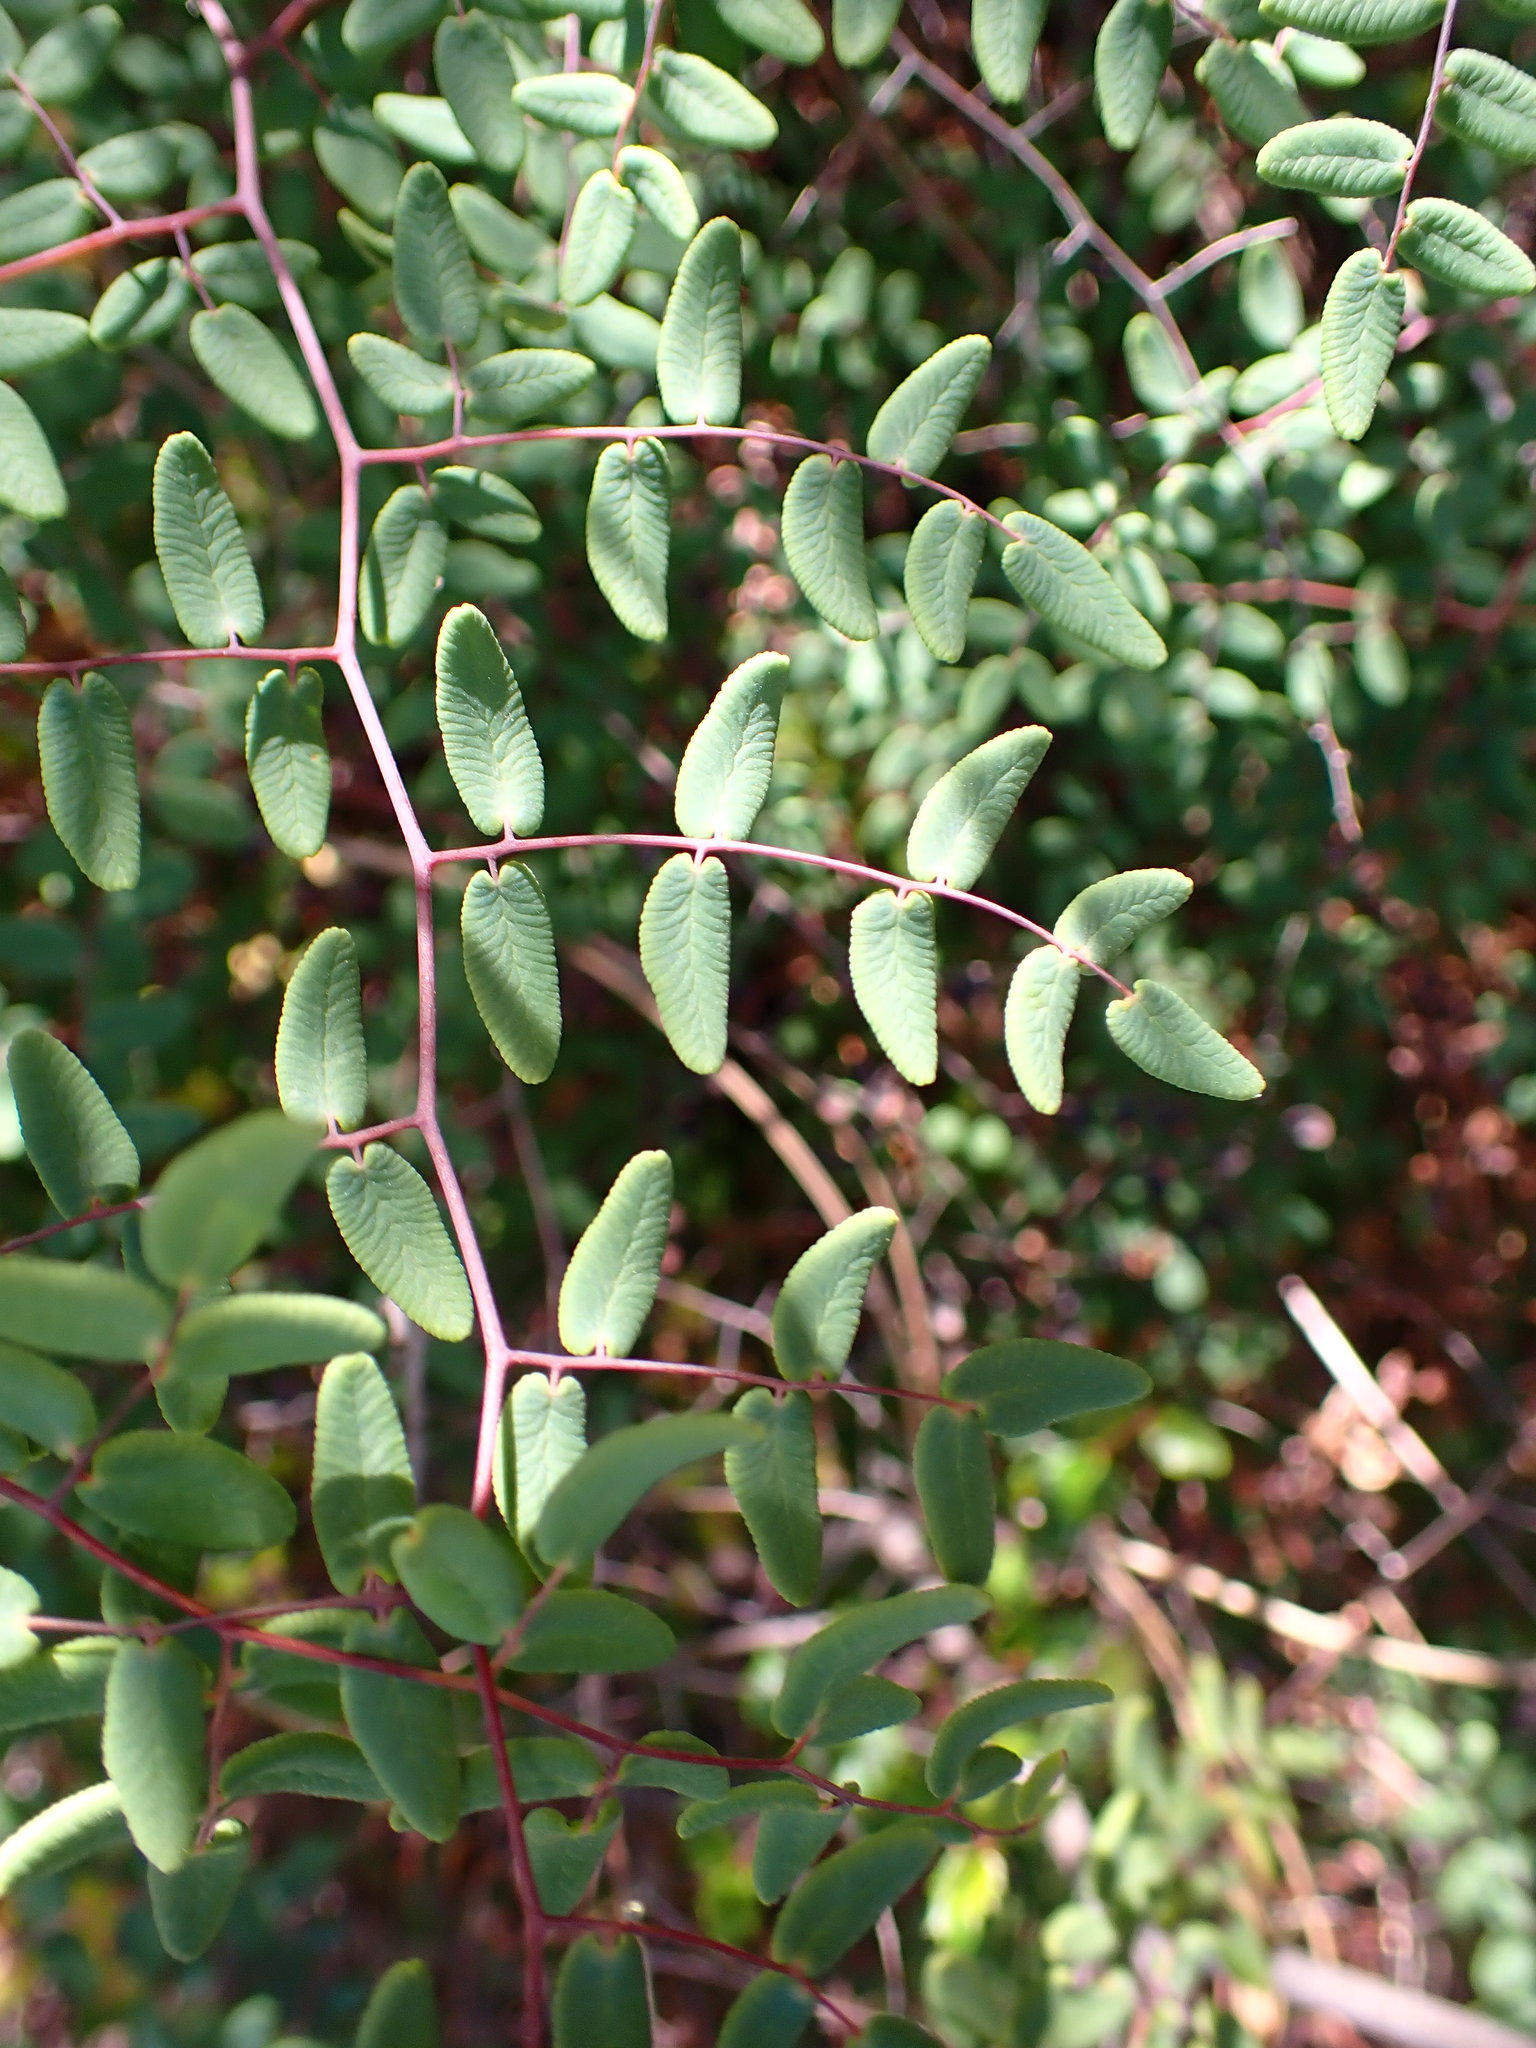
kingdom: Plantae
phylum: Tracheophyta
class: Polypodiopsida
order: Polypodiales
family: Pteridaceae
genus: Pellaea
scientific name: Pellaea andromedifolia
